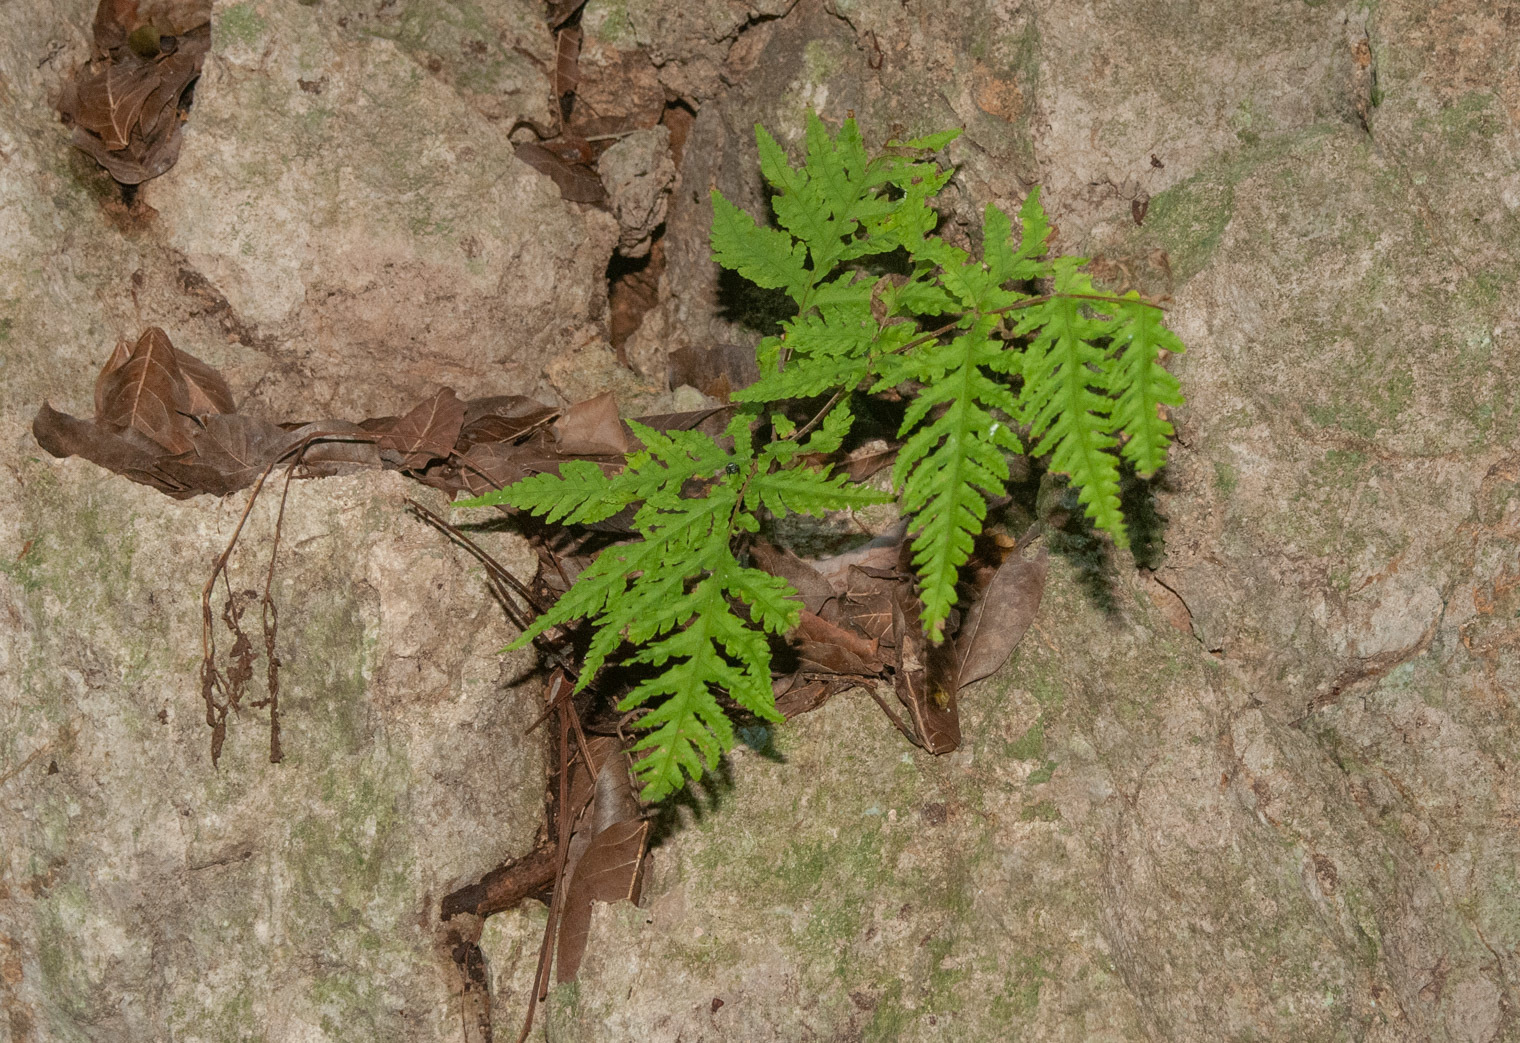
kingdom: Plantae
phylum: Tracheophyta
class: Polypodiopsida
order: Polypodiales
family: Tectariaceae
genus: Tectaria
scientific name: Tectaria membranacea
